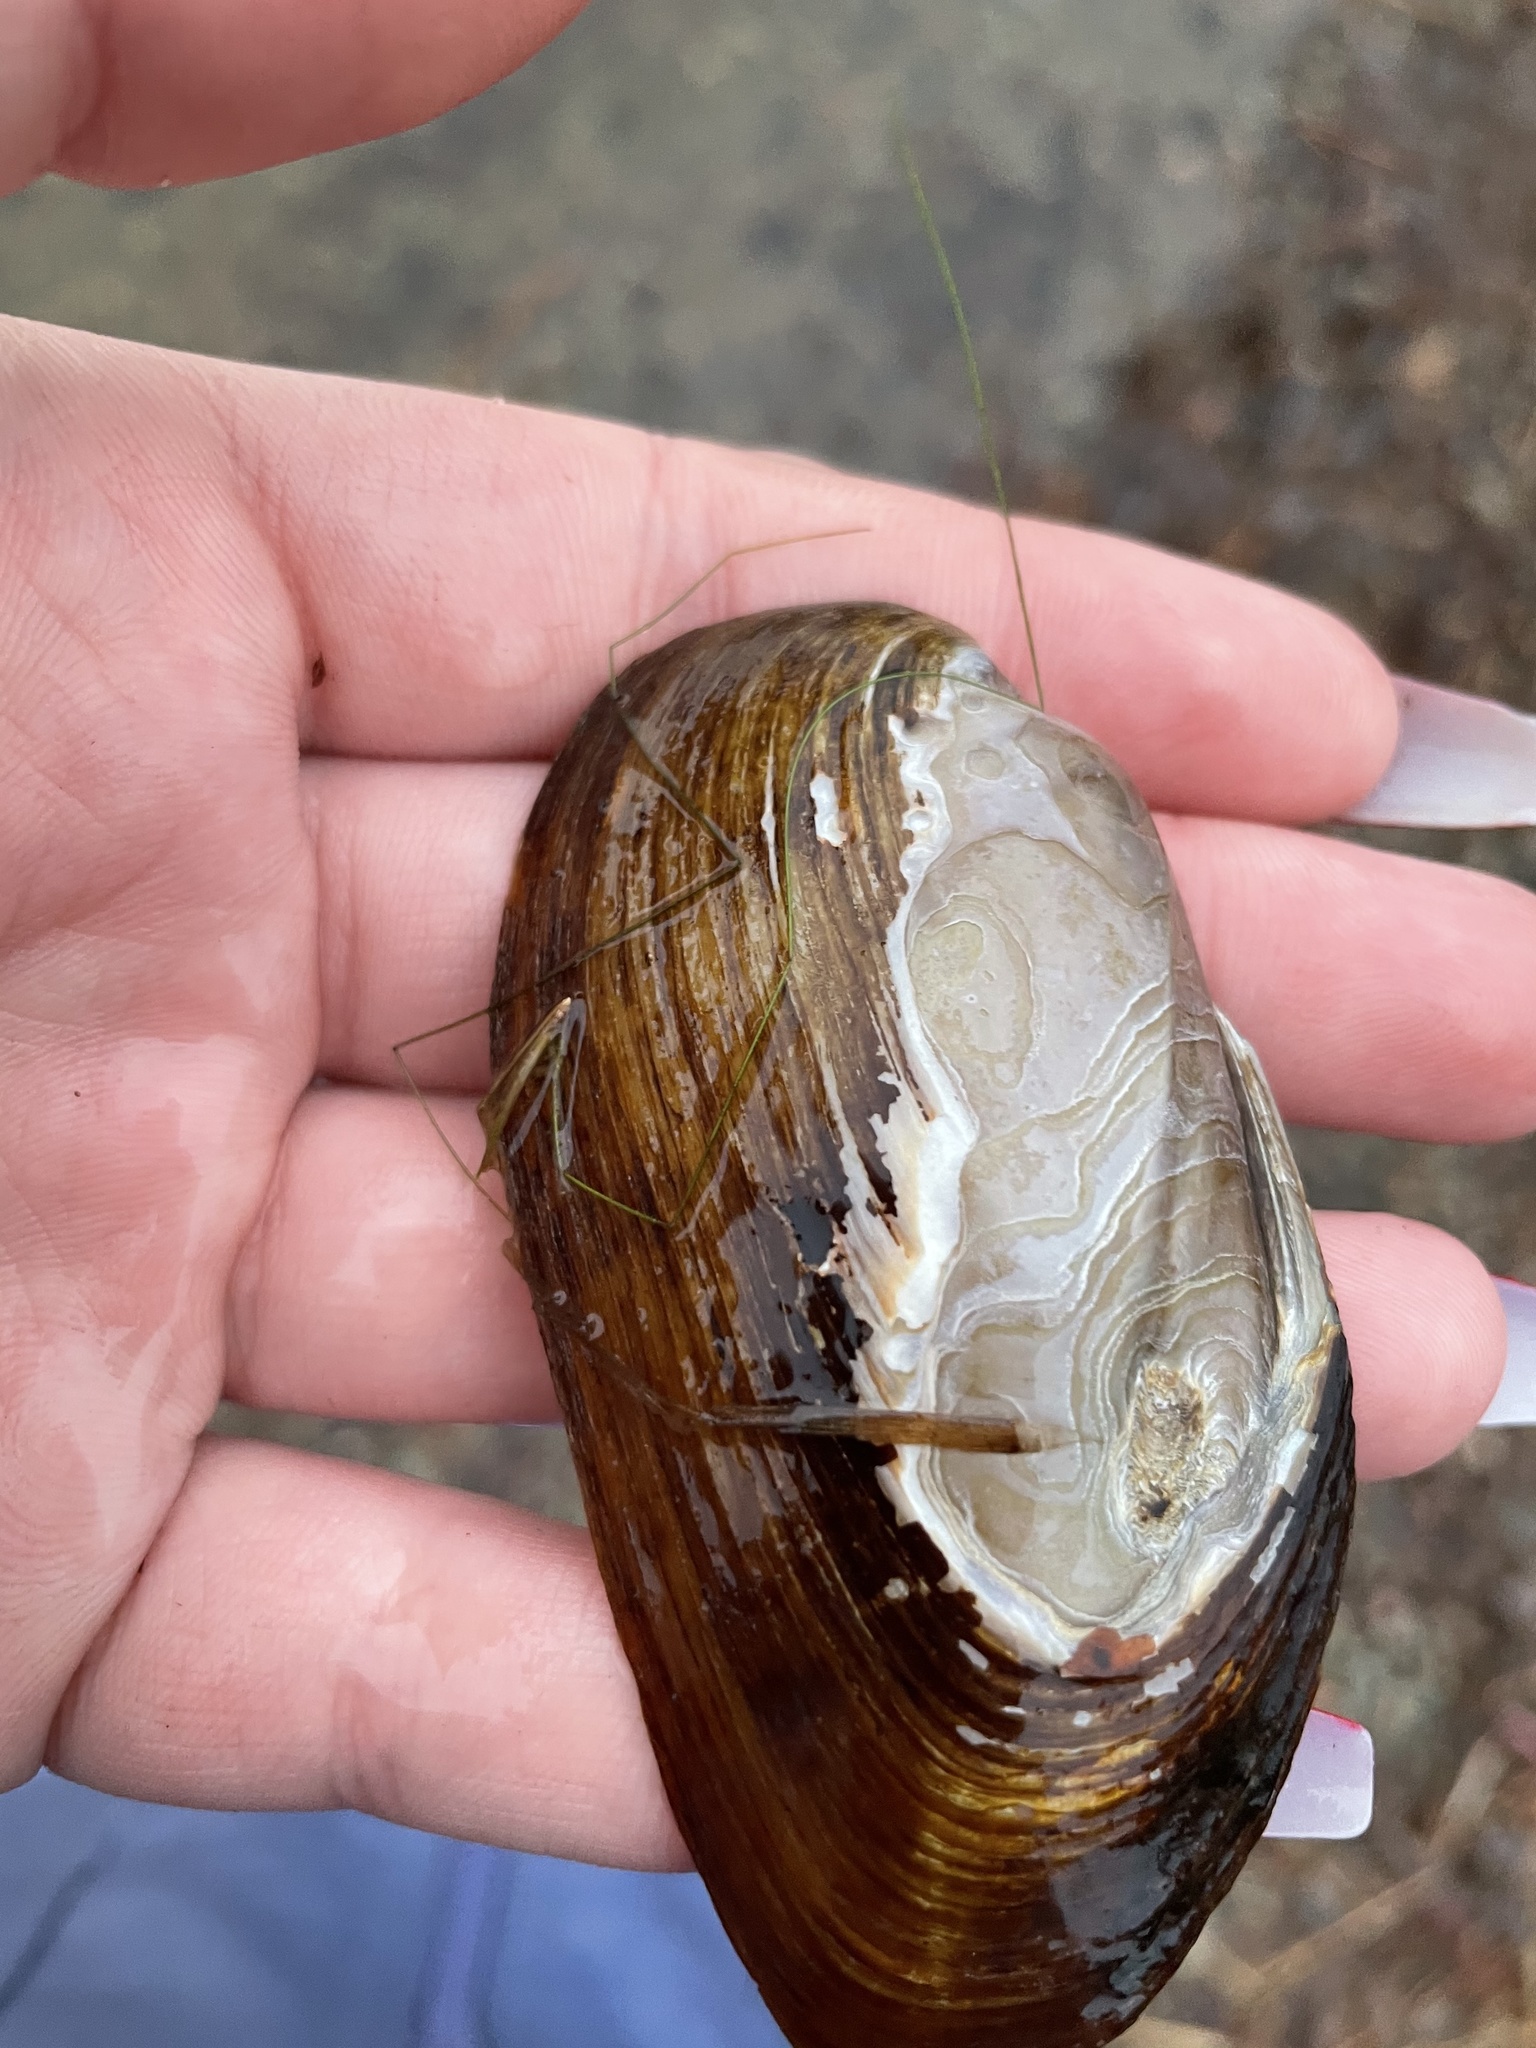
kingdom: Animalia
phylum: Mollusca
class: Bivalvia
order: Unionida
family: Unionidae
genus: Elliptio
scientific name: Elliptio complanata
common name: Eastern elliptio
